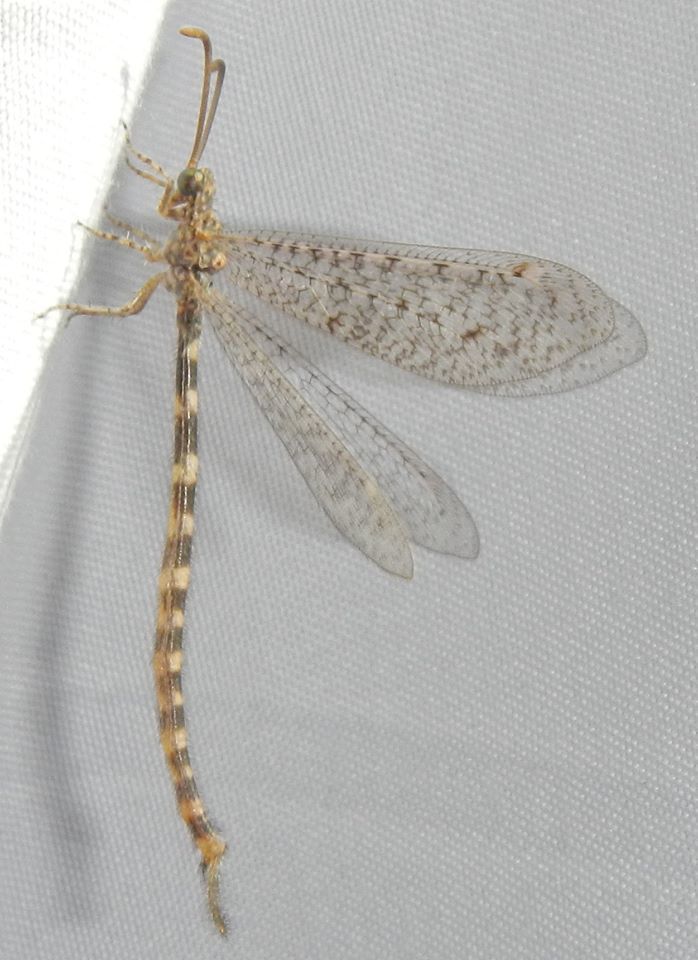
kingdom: Animalia
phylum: Arthropoda
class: Insecta
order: Neuroptera
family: Myrmeleontidae
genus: Brachynemurus
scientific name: Brachynemurus sackeni
